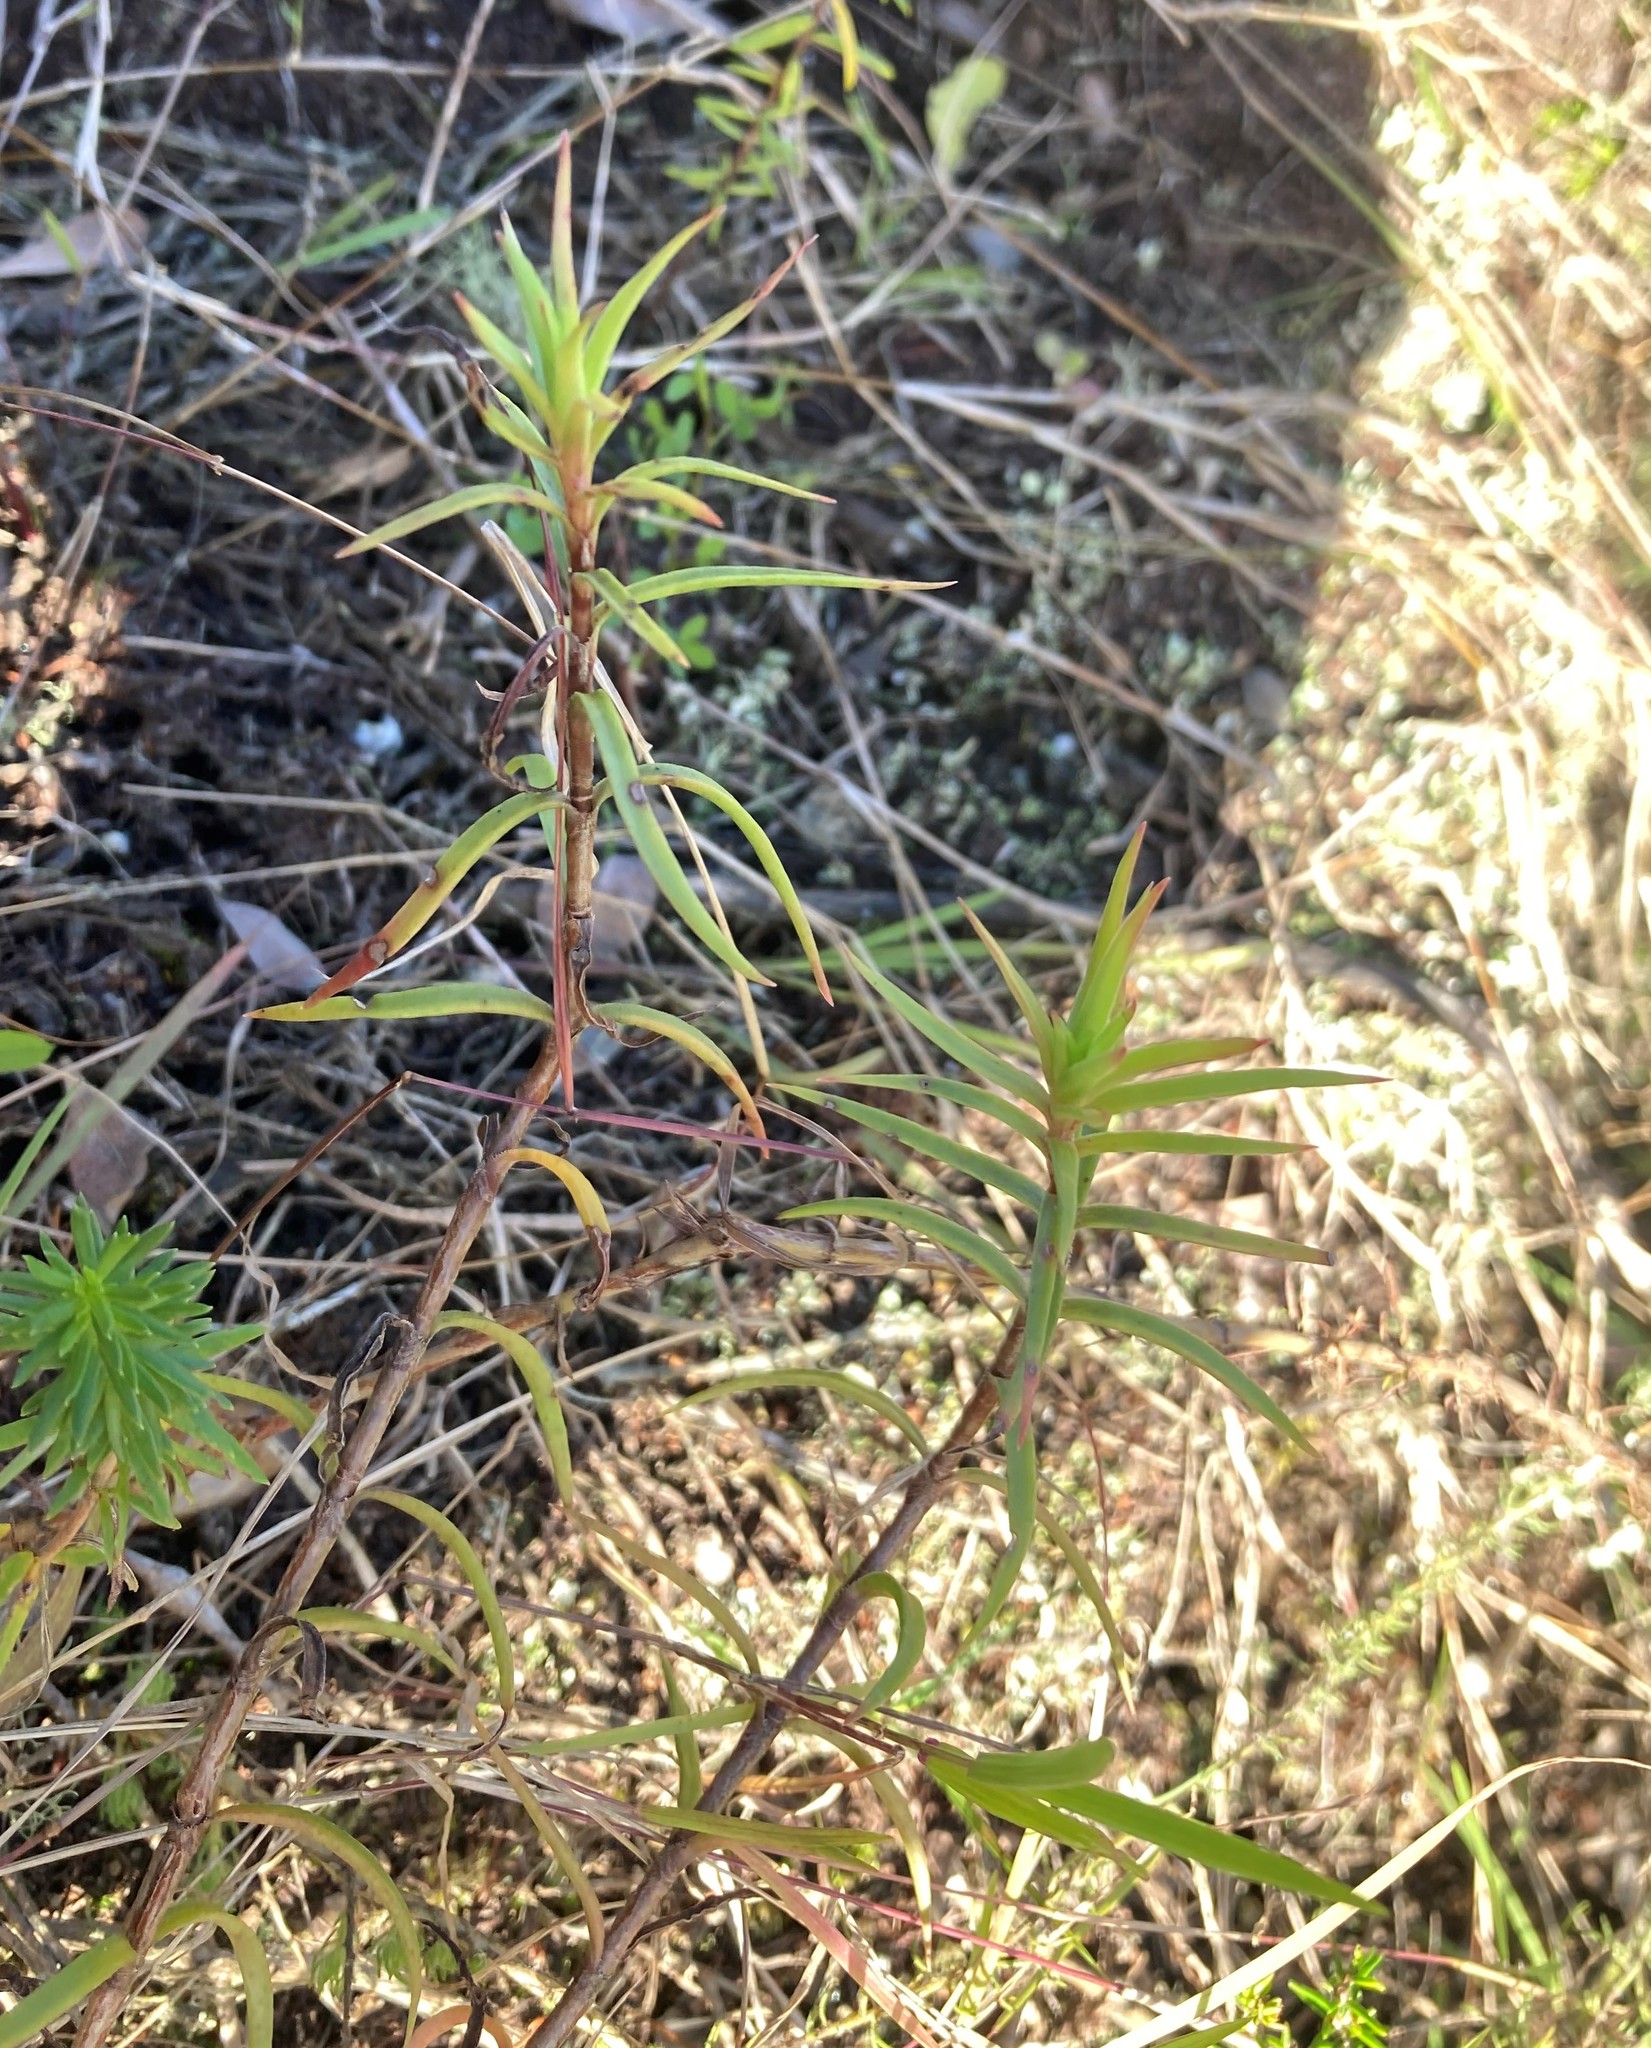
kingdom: Plantae
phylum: Tracheophyta
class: Magnoliopsida
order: Saxifragales
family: Crassulaceae
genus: Crassula
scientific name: Crassula subulata
